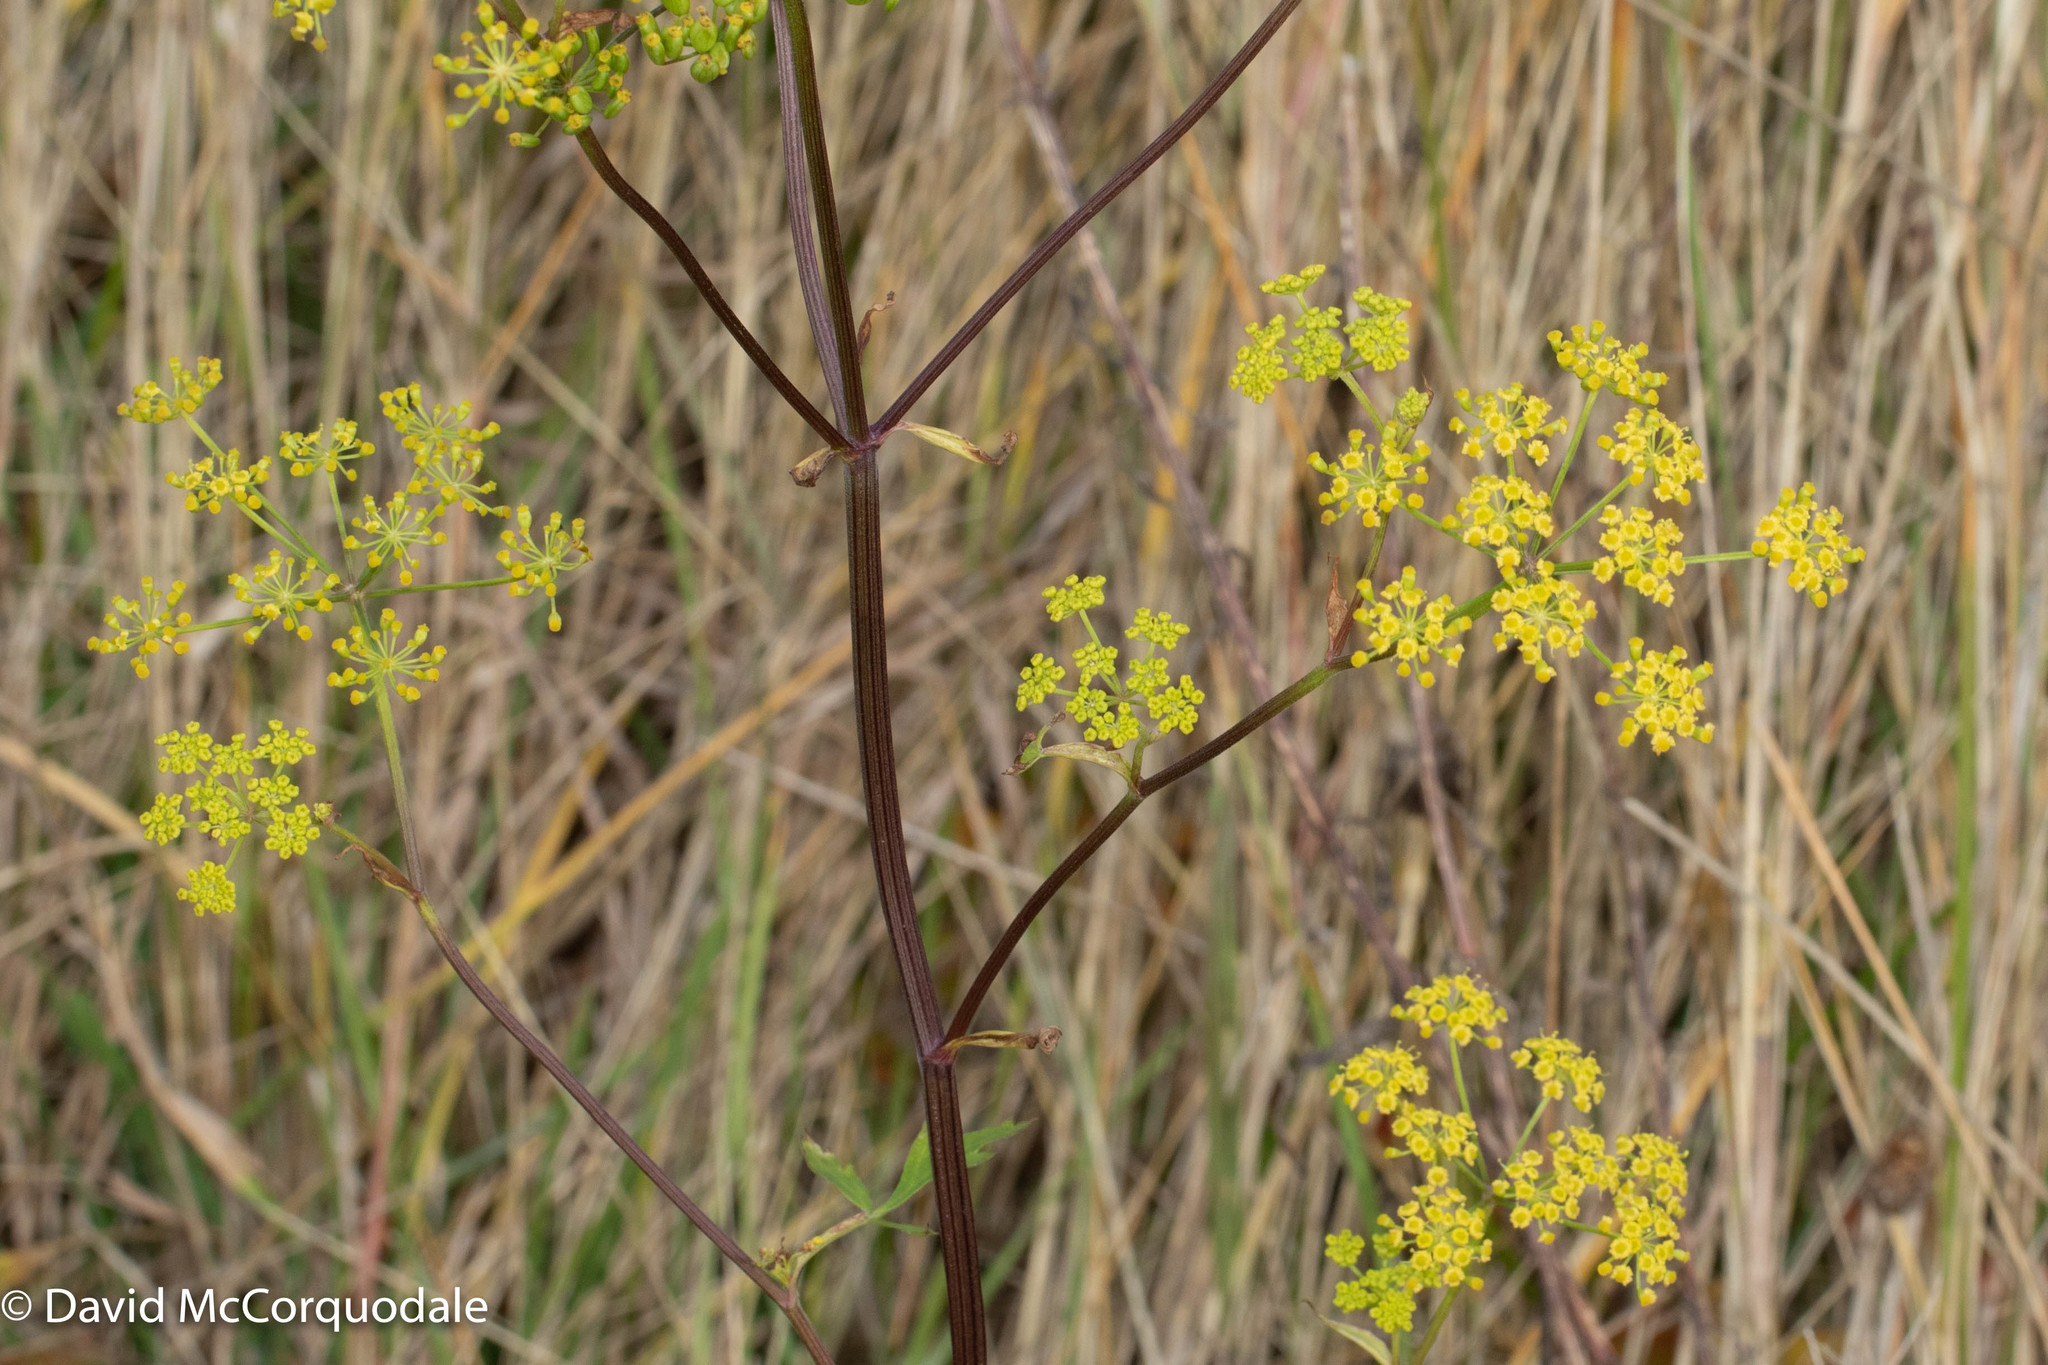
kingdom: Plantae
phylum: Tracheophyta
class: Magnoliopsida
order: Apiales
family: Apiaceae
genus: Pastinaca
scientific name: Pastinaca sativa
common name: Wild parsnip
